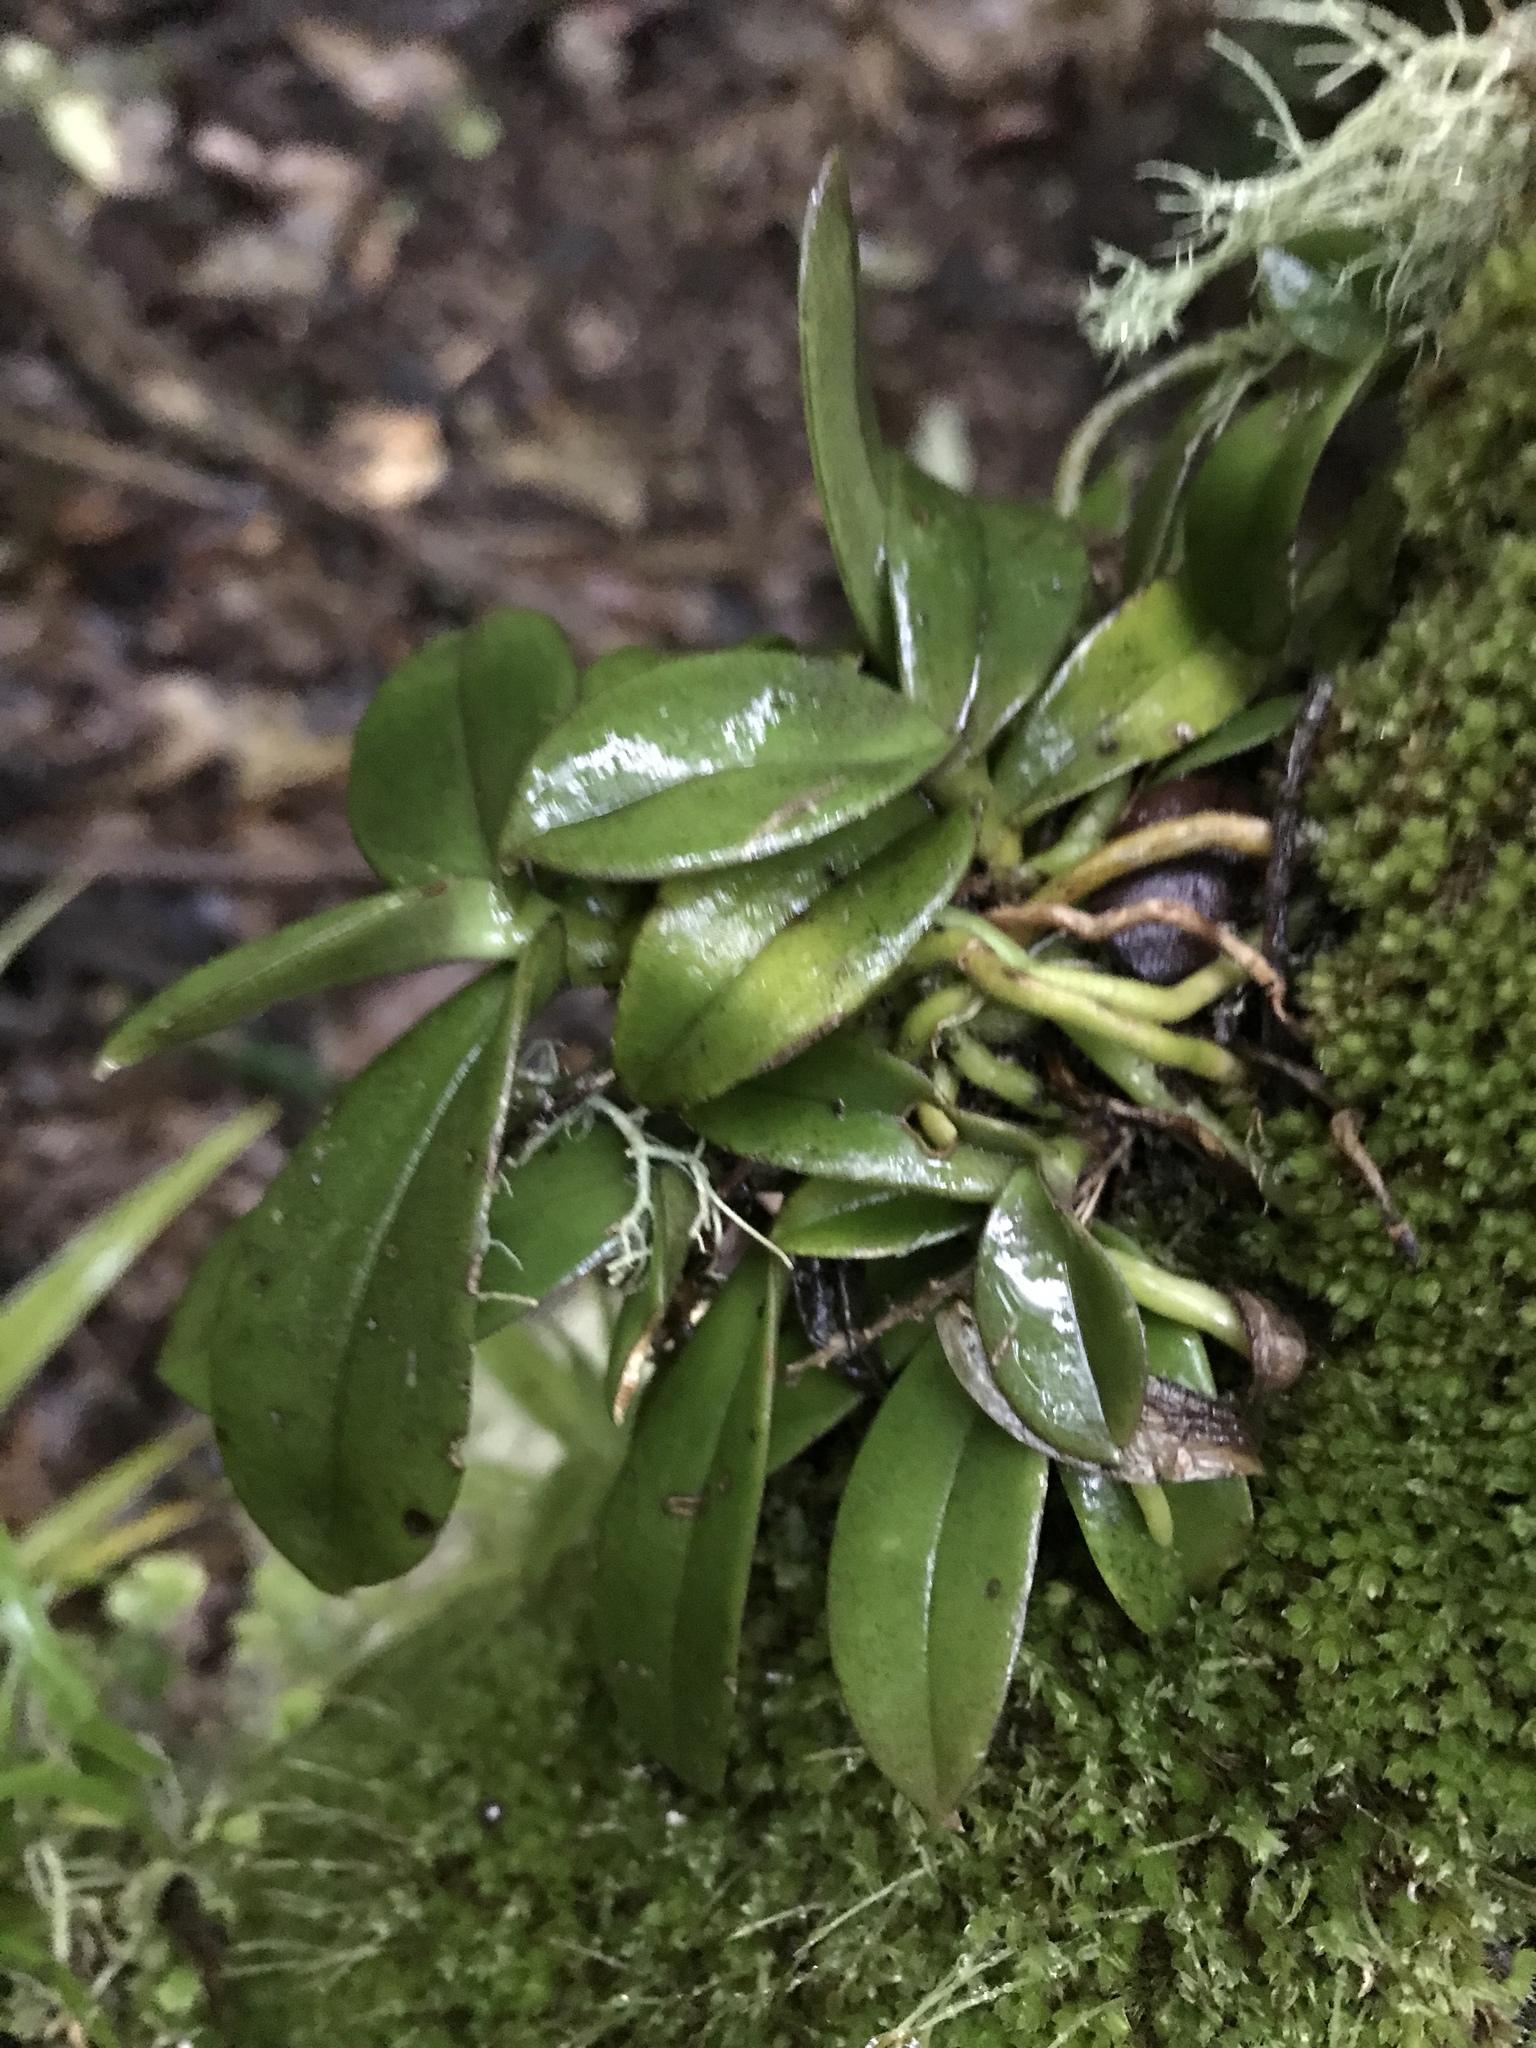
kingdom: Plantae
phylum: Tracheophyta
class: Liliopsida
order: Asparagales
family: Orchidaceae
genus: Drymoanthus
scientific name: Drymoanthus adversus
